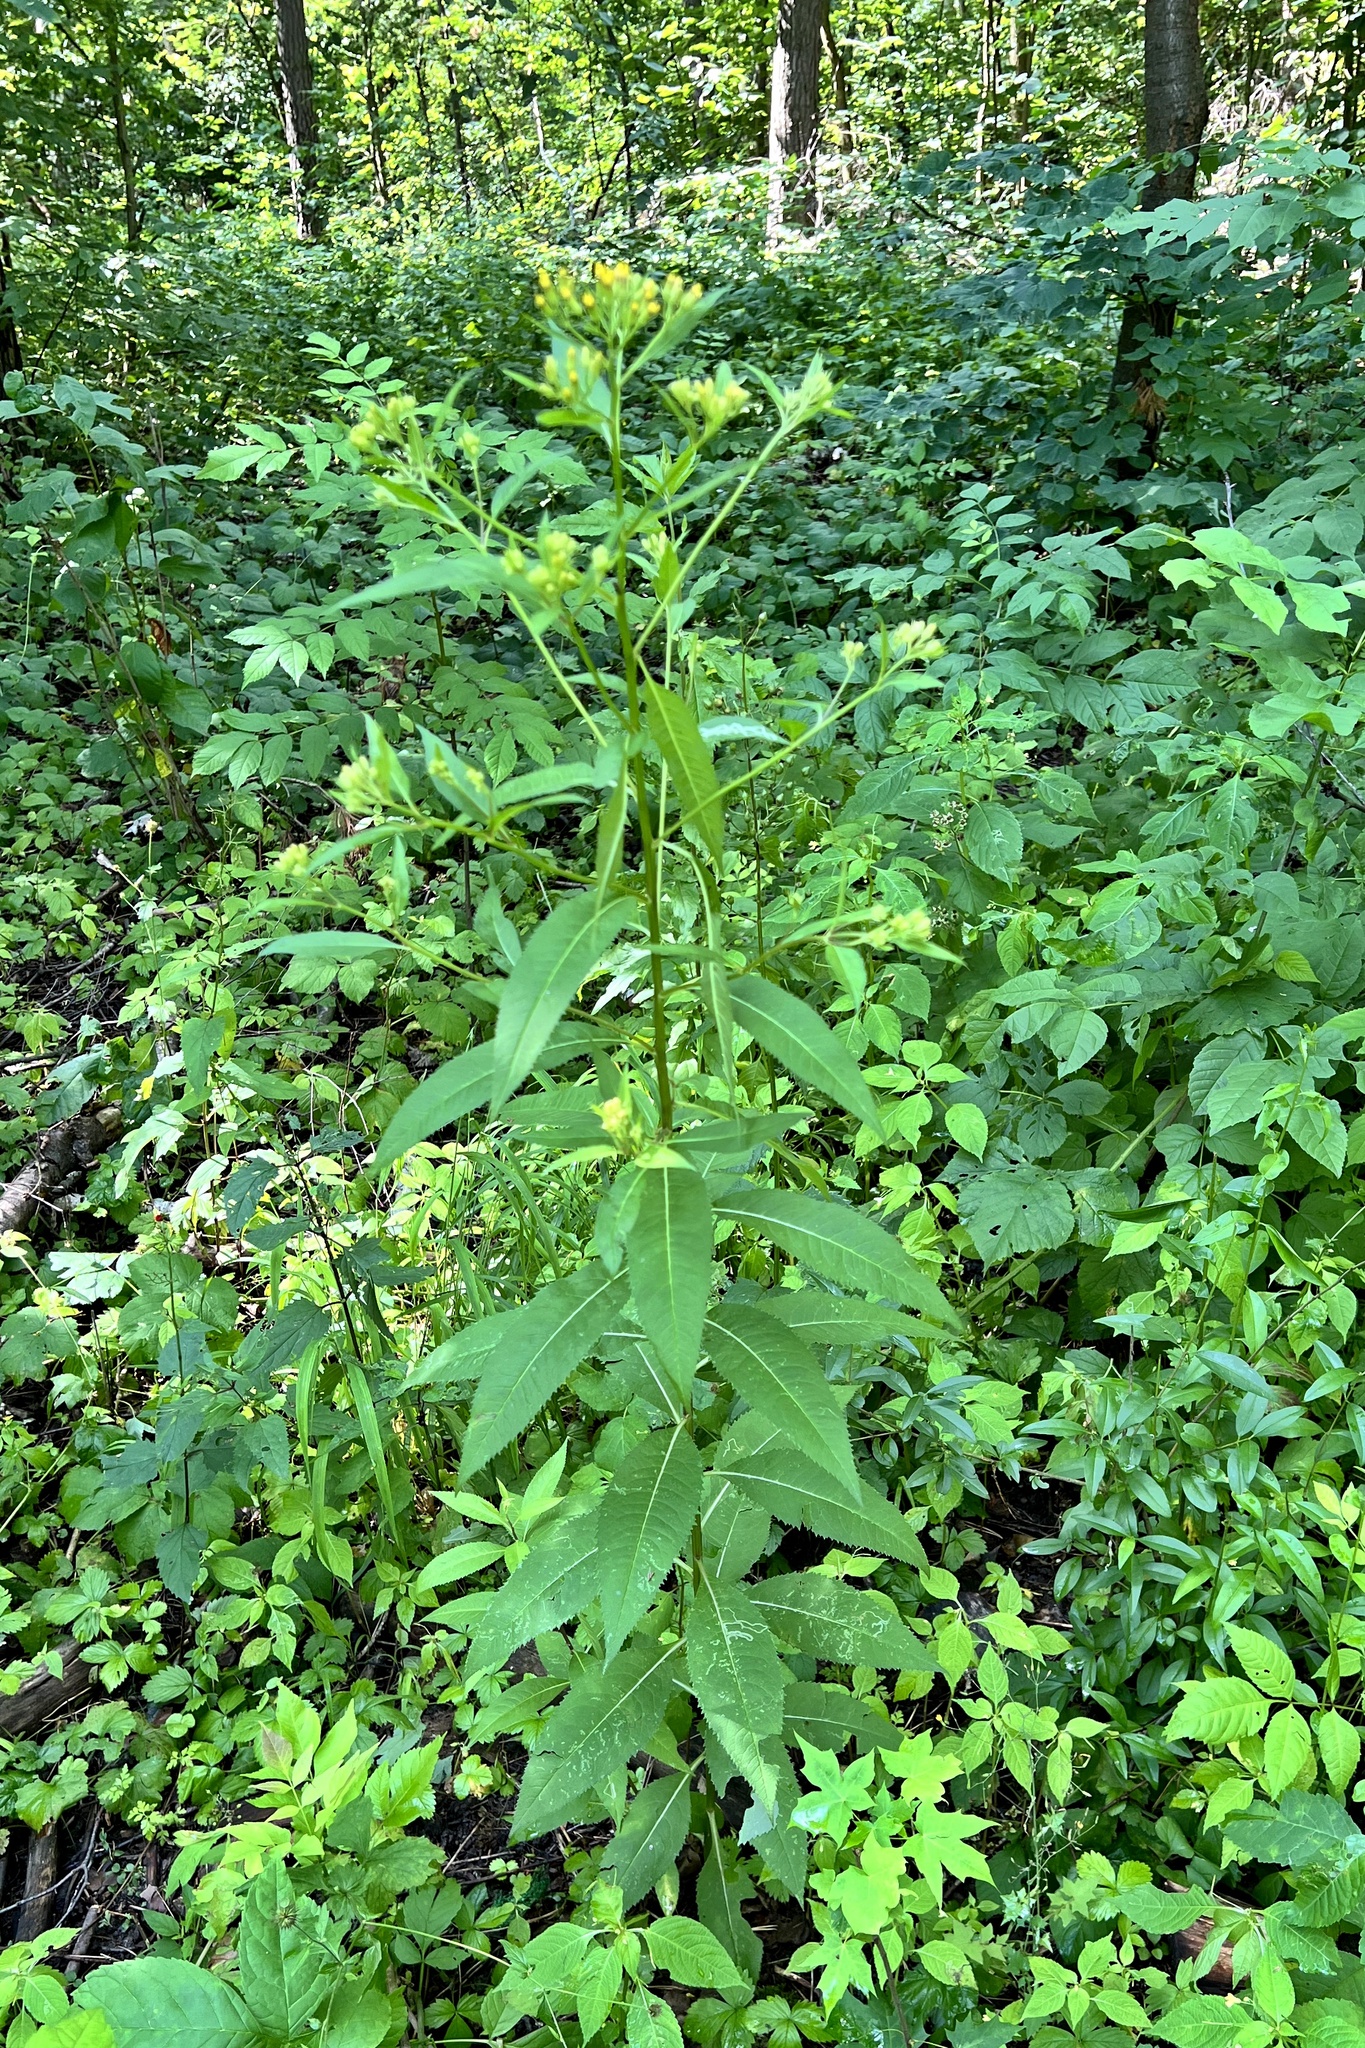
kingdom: Plantae
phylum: Tracheophyta
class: Magnoliopsida
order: Asterales
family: Asteraceae
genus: Senecio
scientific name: Senecio ovatus
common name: Wood ragwort
